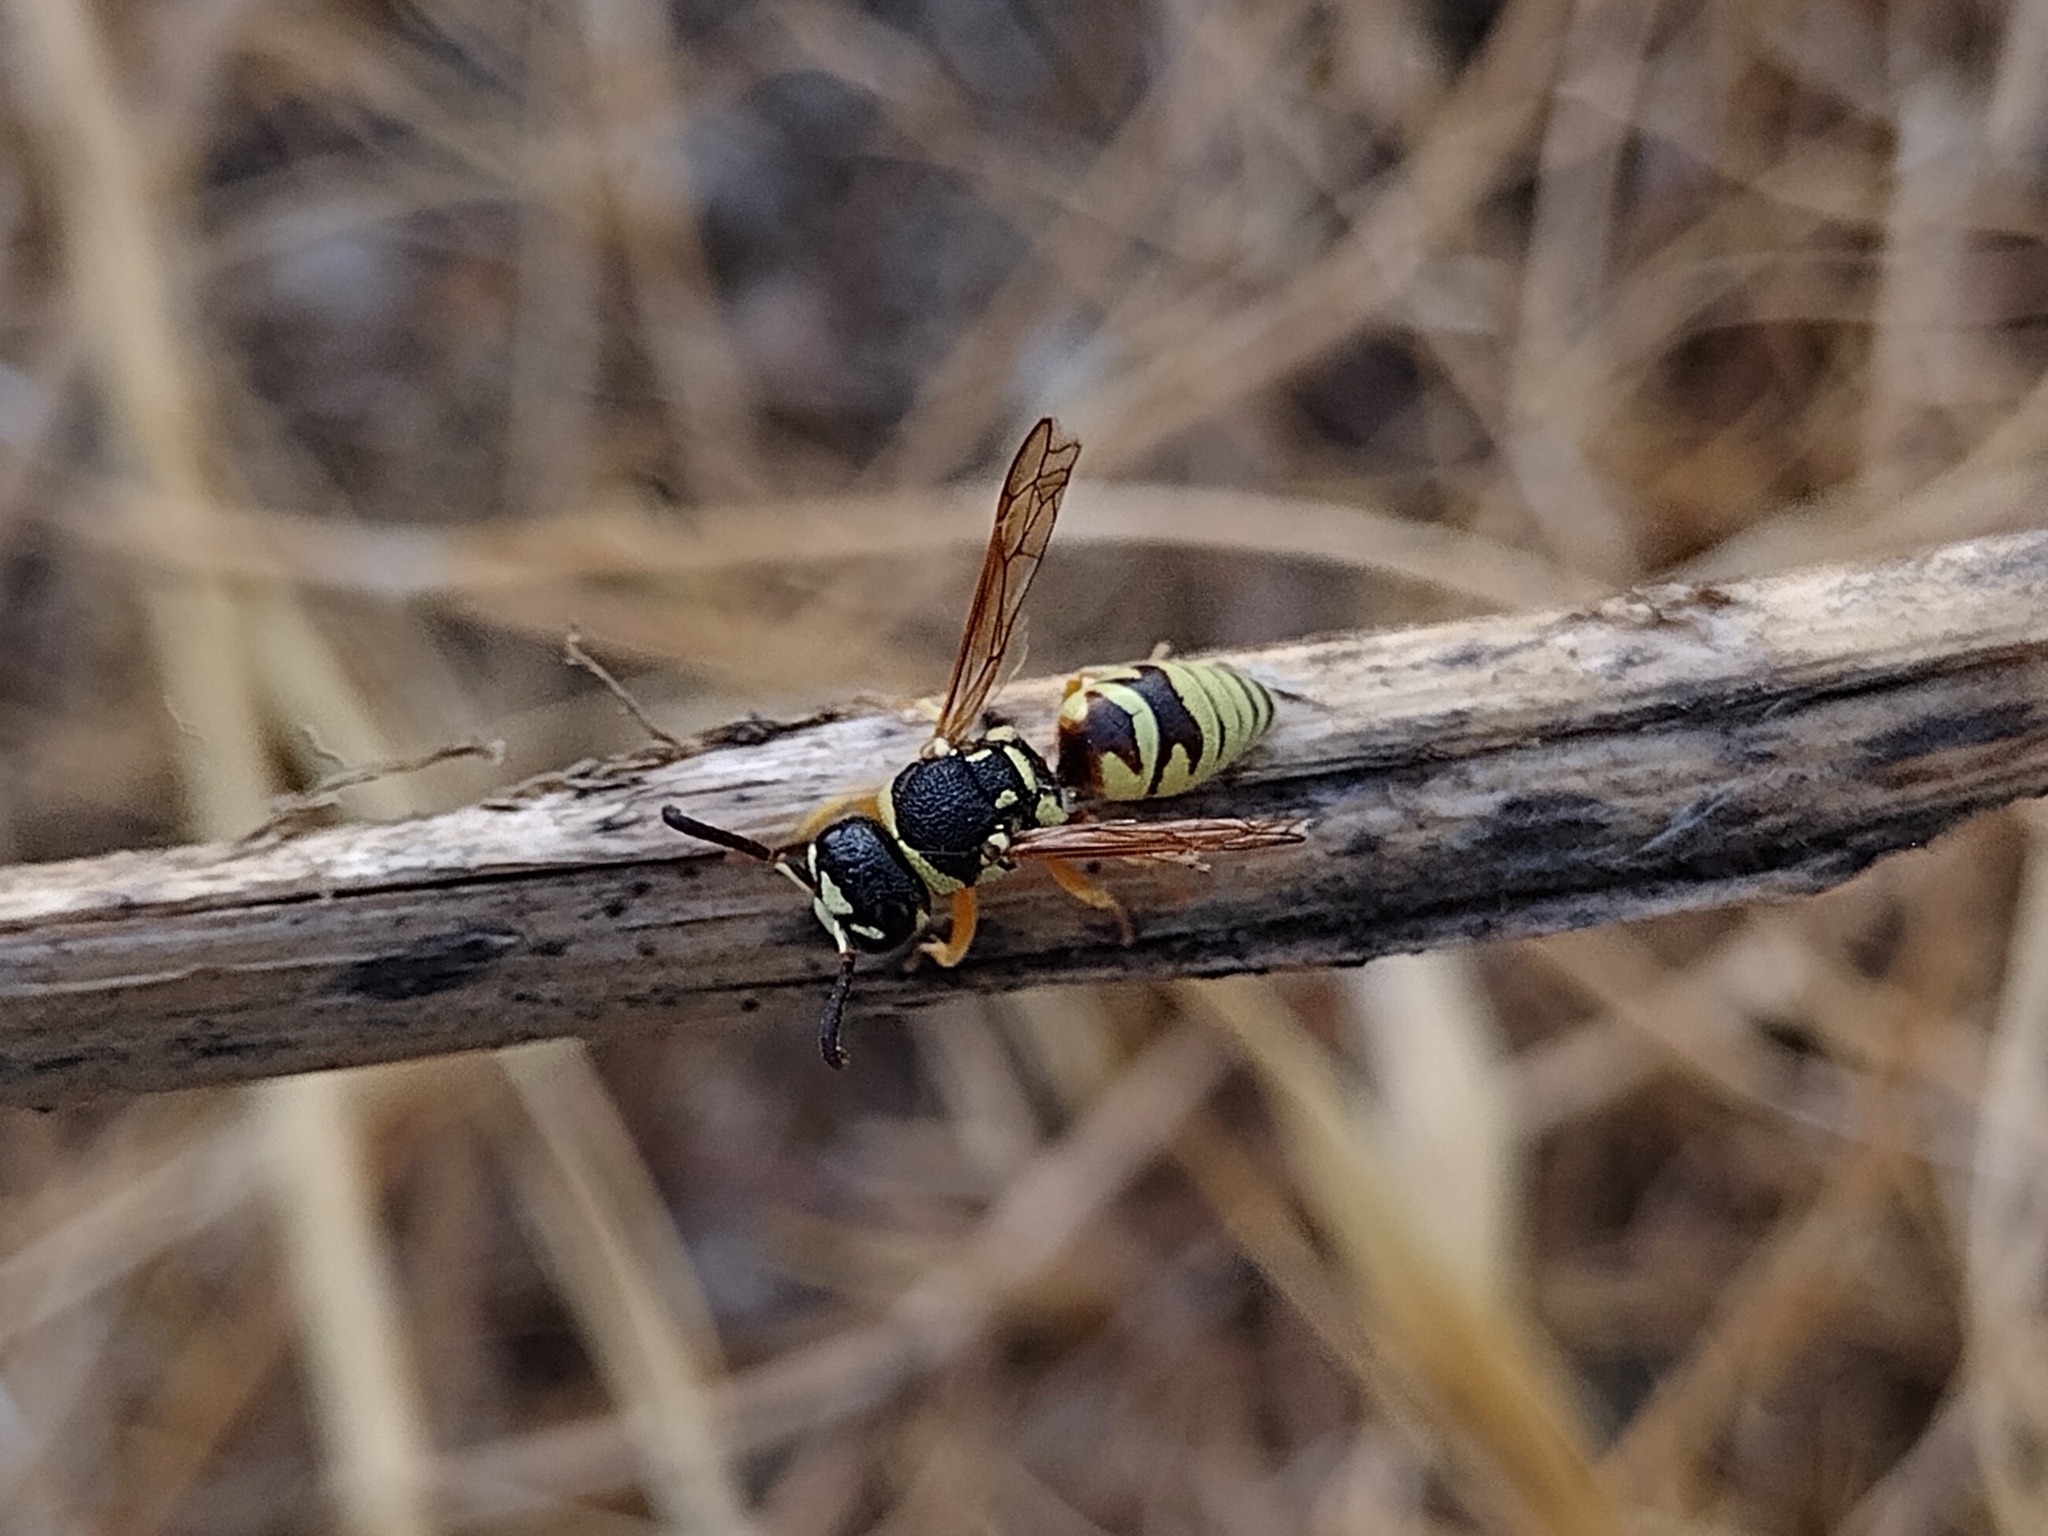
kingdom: Animalia
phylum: Arthropoda
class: Insecta
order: Hymenoptera
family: Eumenidae
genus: Euodynerus
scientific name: Euodynerus annulatus
